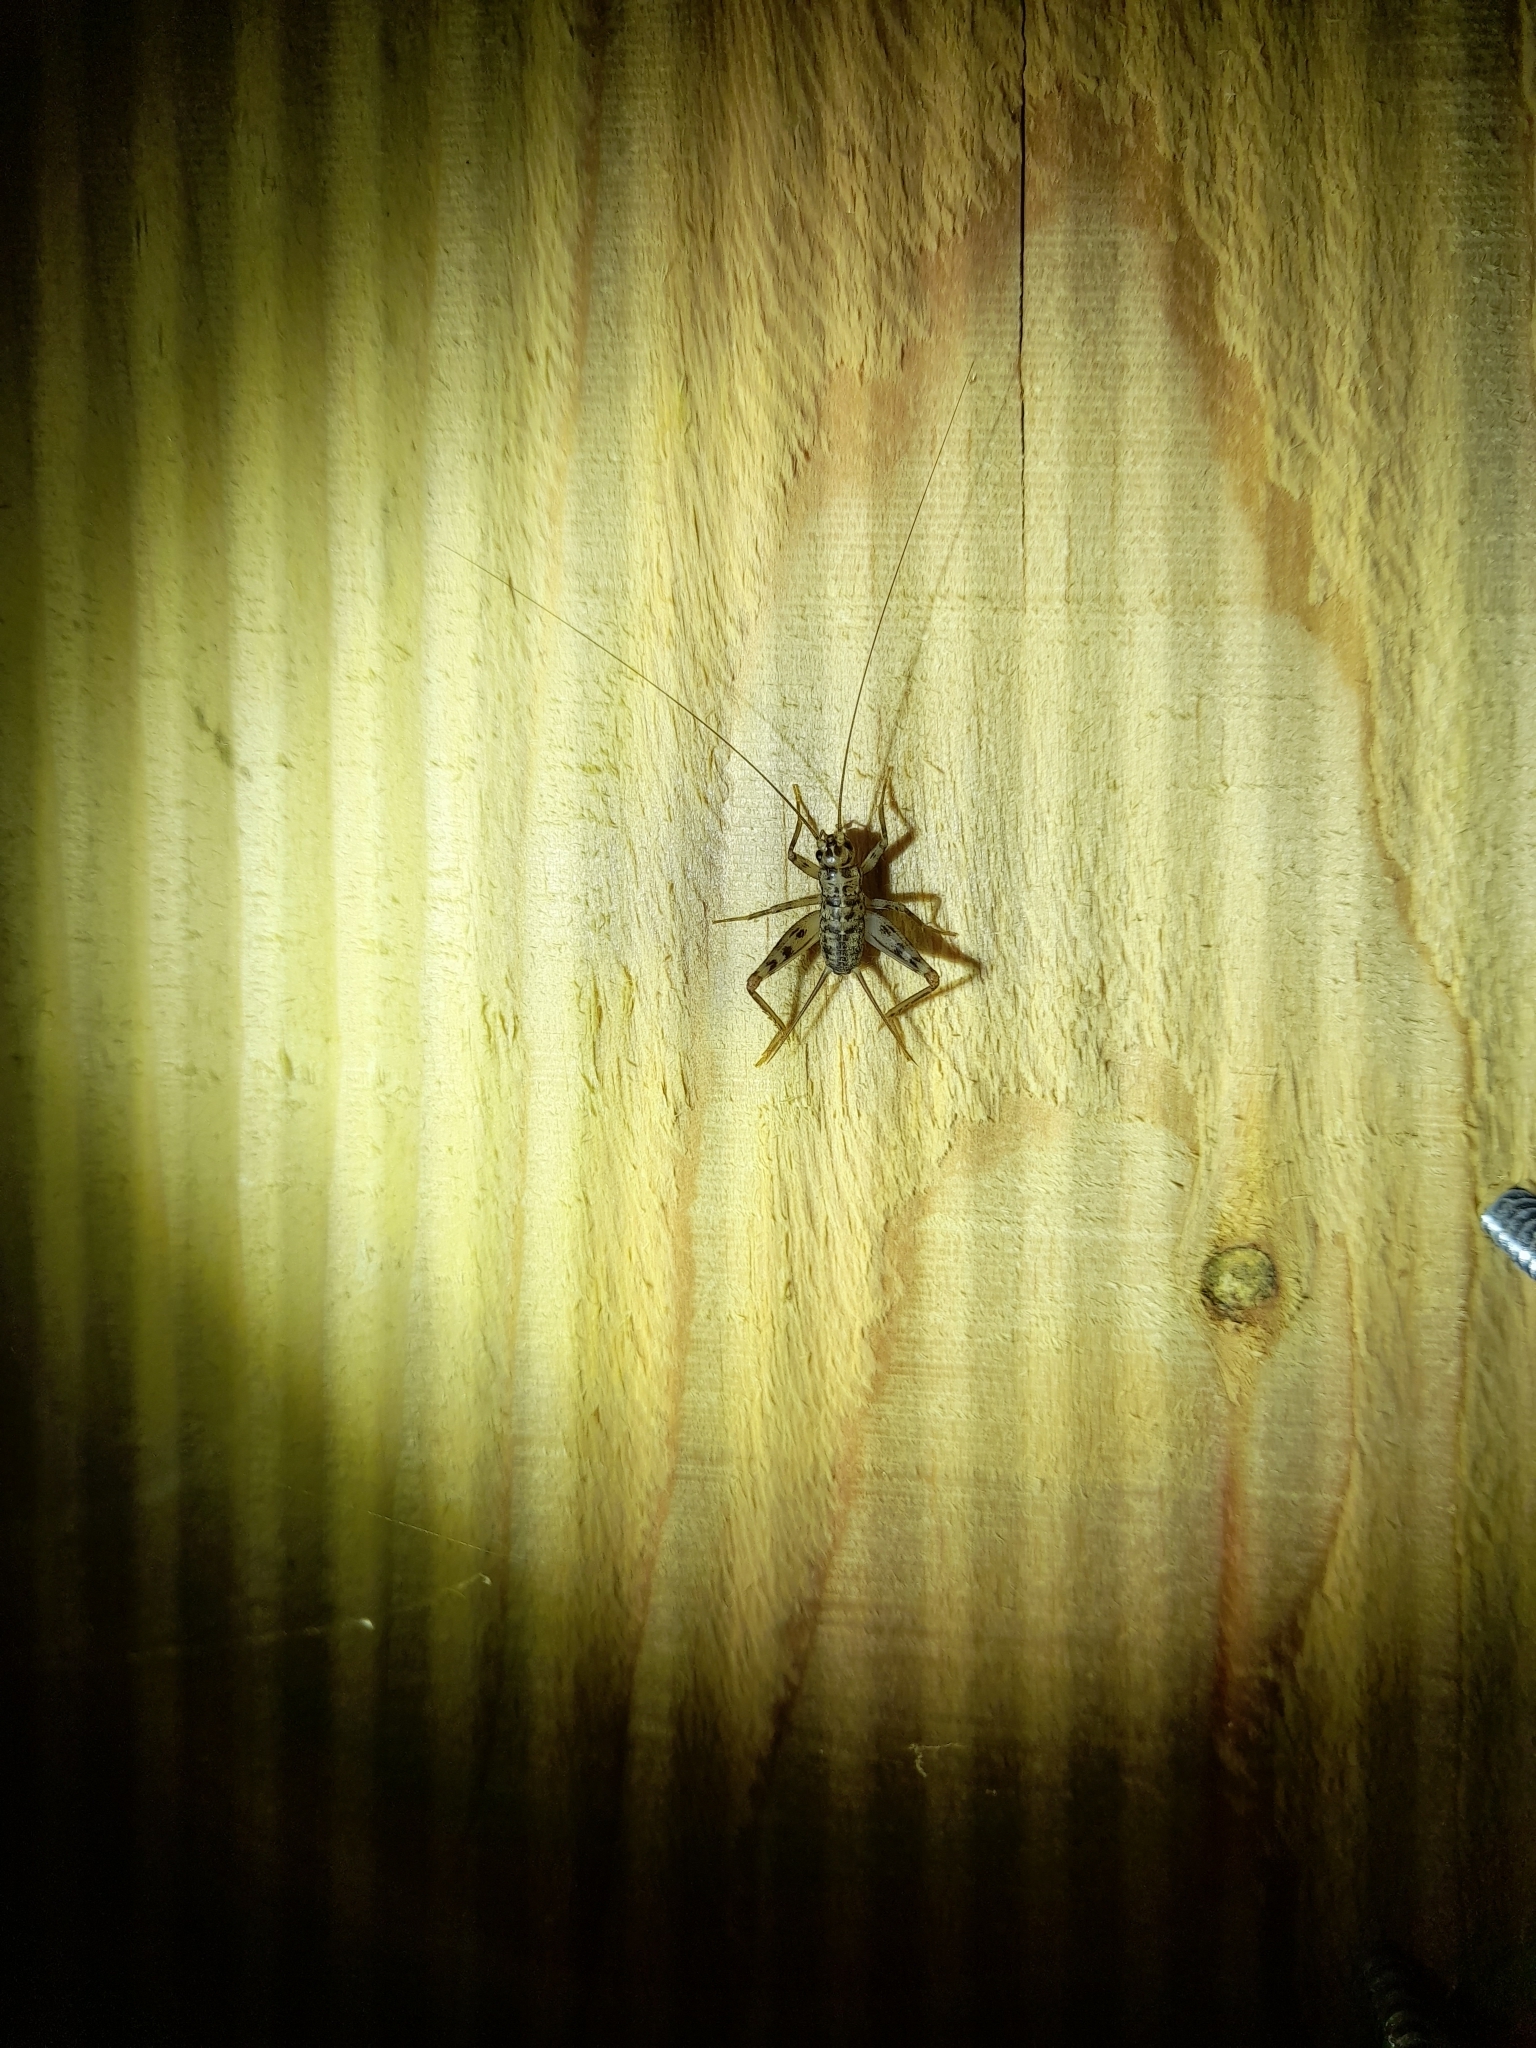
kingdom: Animalia
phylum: Arthropoda
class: Insecta
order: Orthoptera
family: Gryllidae
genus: Gryllomorpha
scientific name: Gryllomorpha dalmatina
